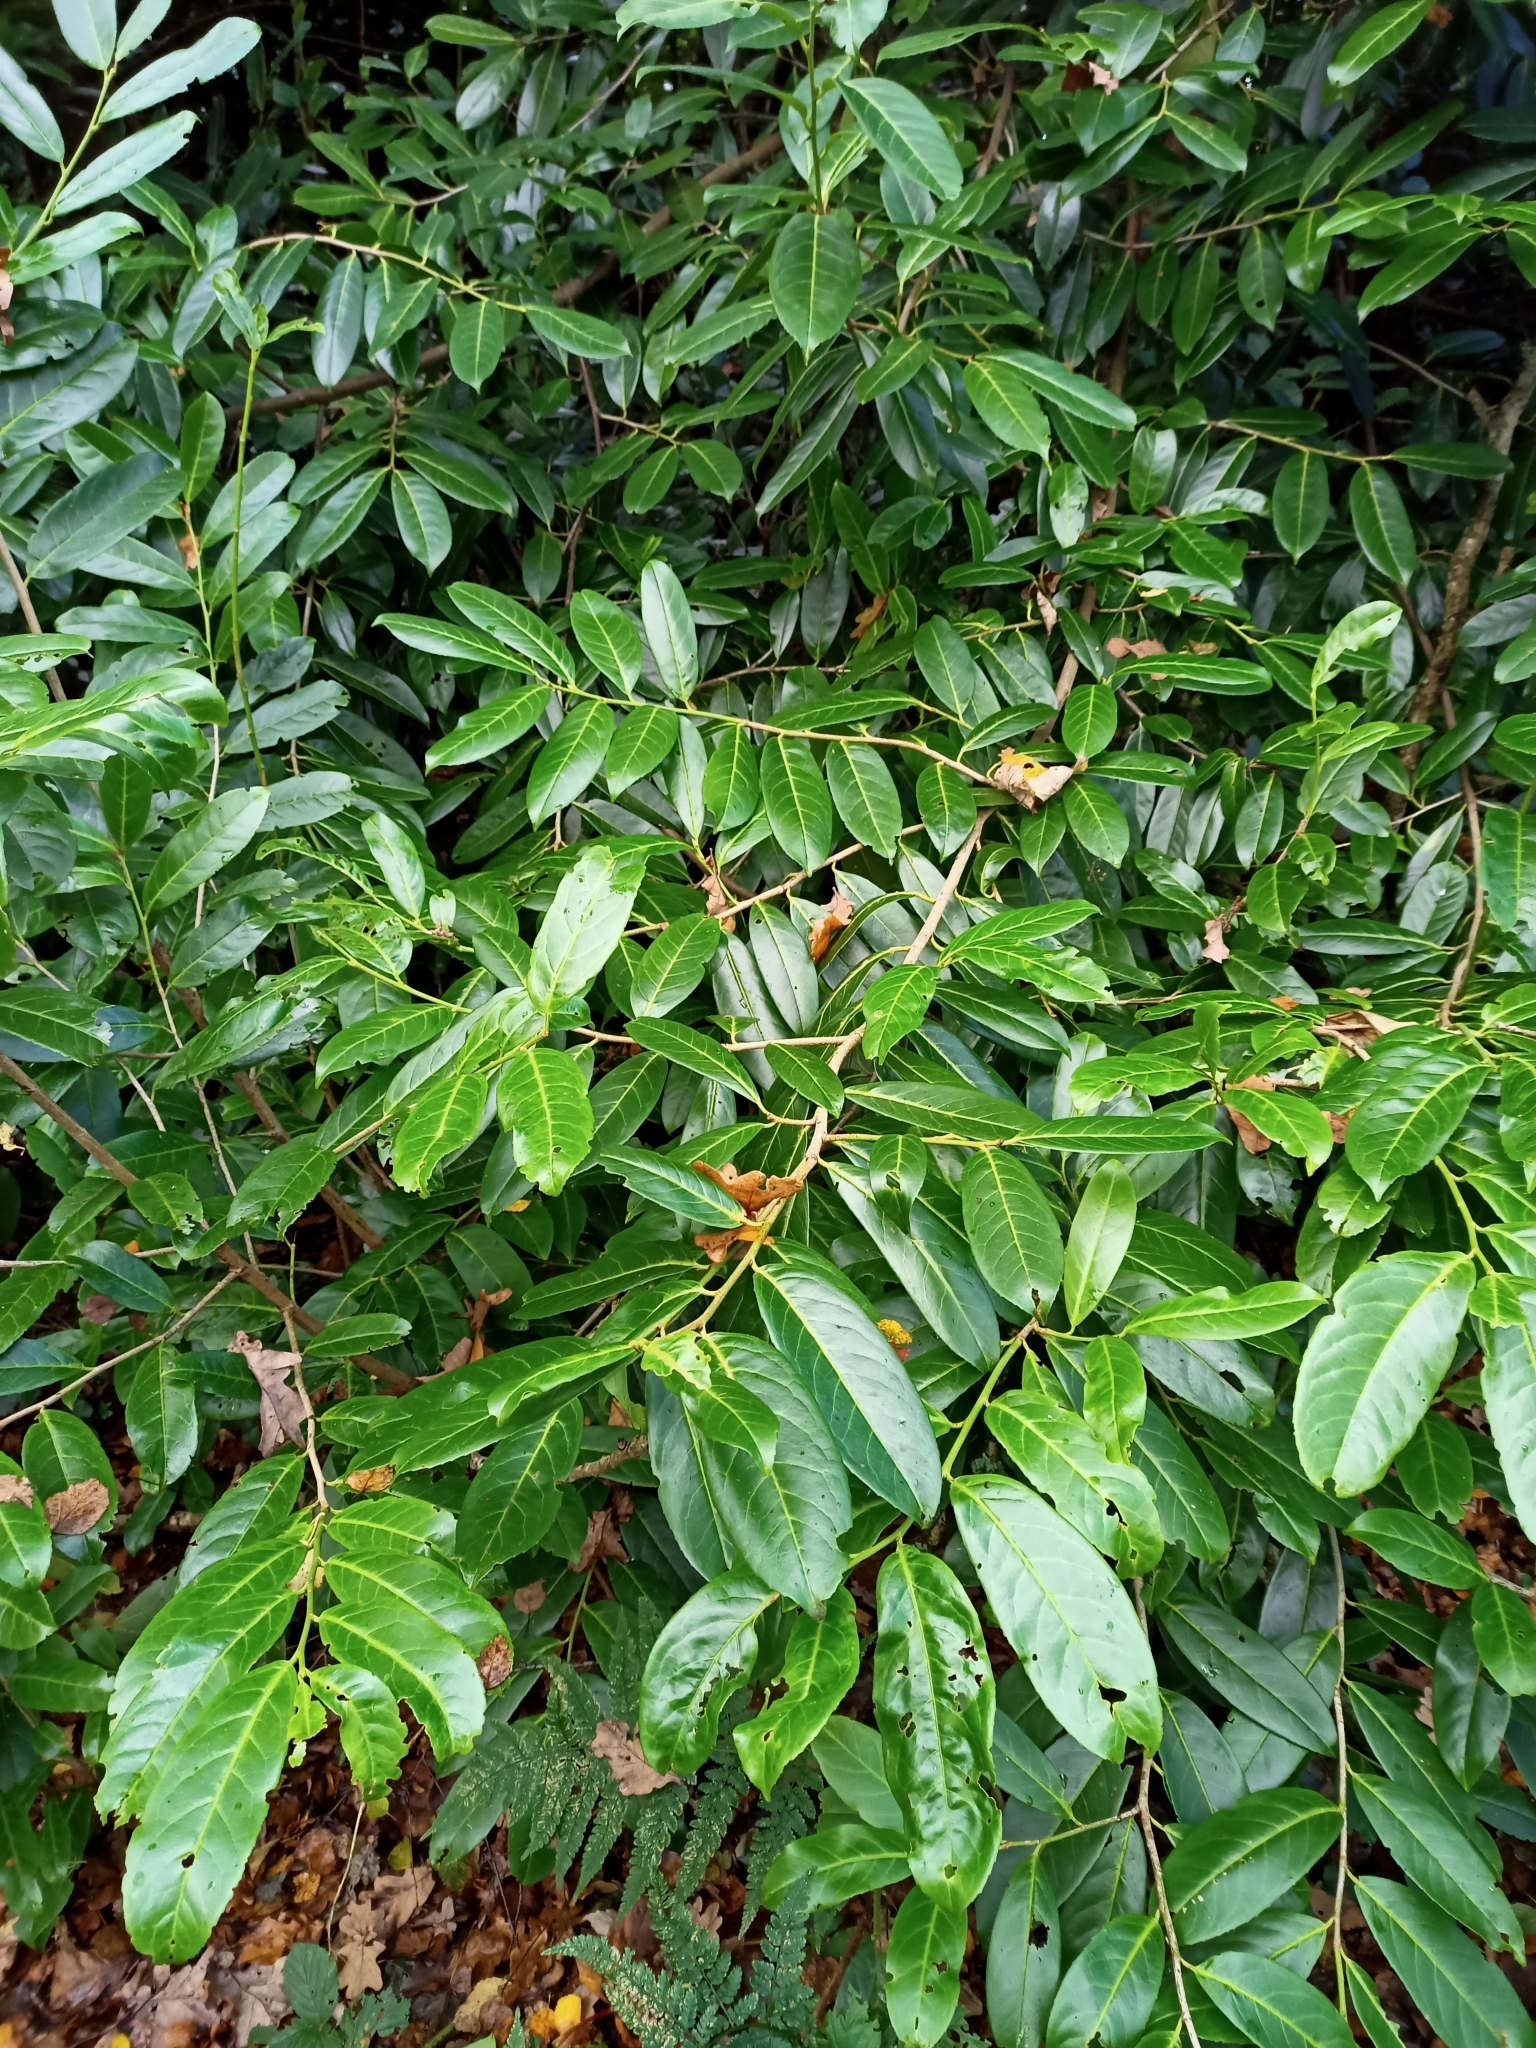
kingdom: Plantae
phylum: Tracheophyta
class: Magnoliopsida
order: Rosales
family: Rosaceae
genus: Prunus
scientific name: Prunus laurocerasus
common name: Cherry laurel
